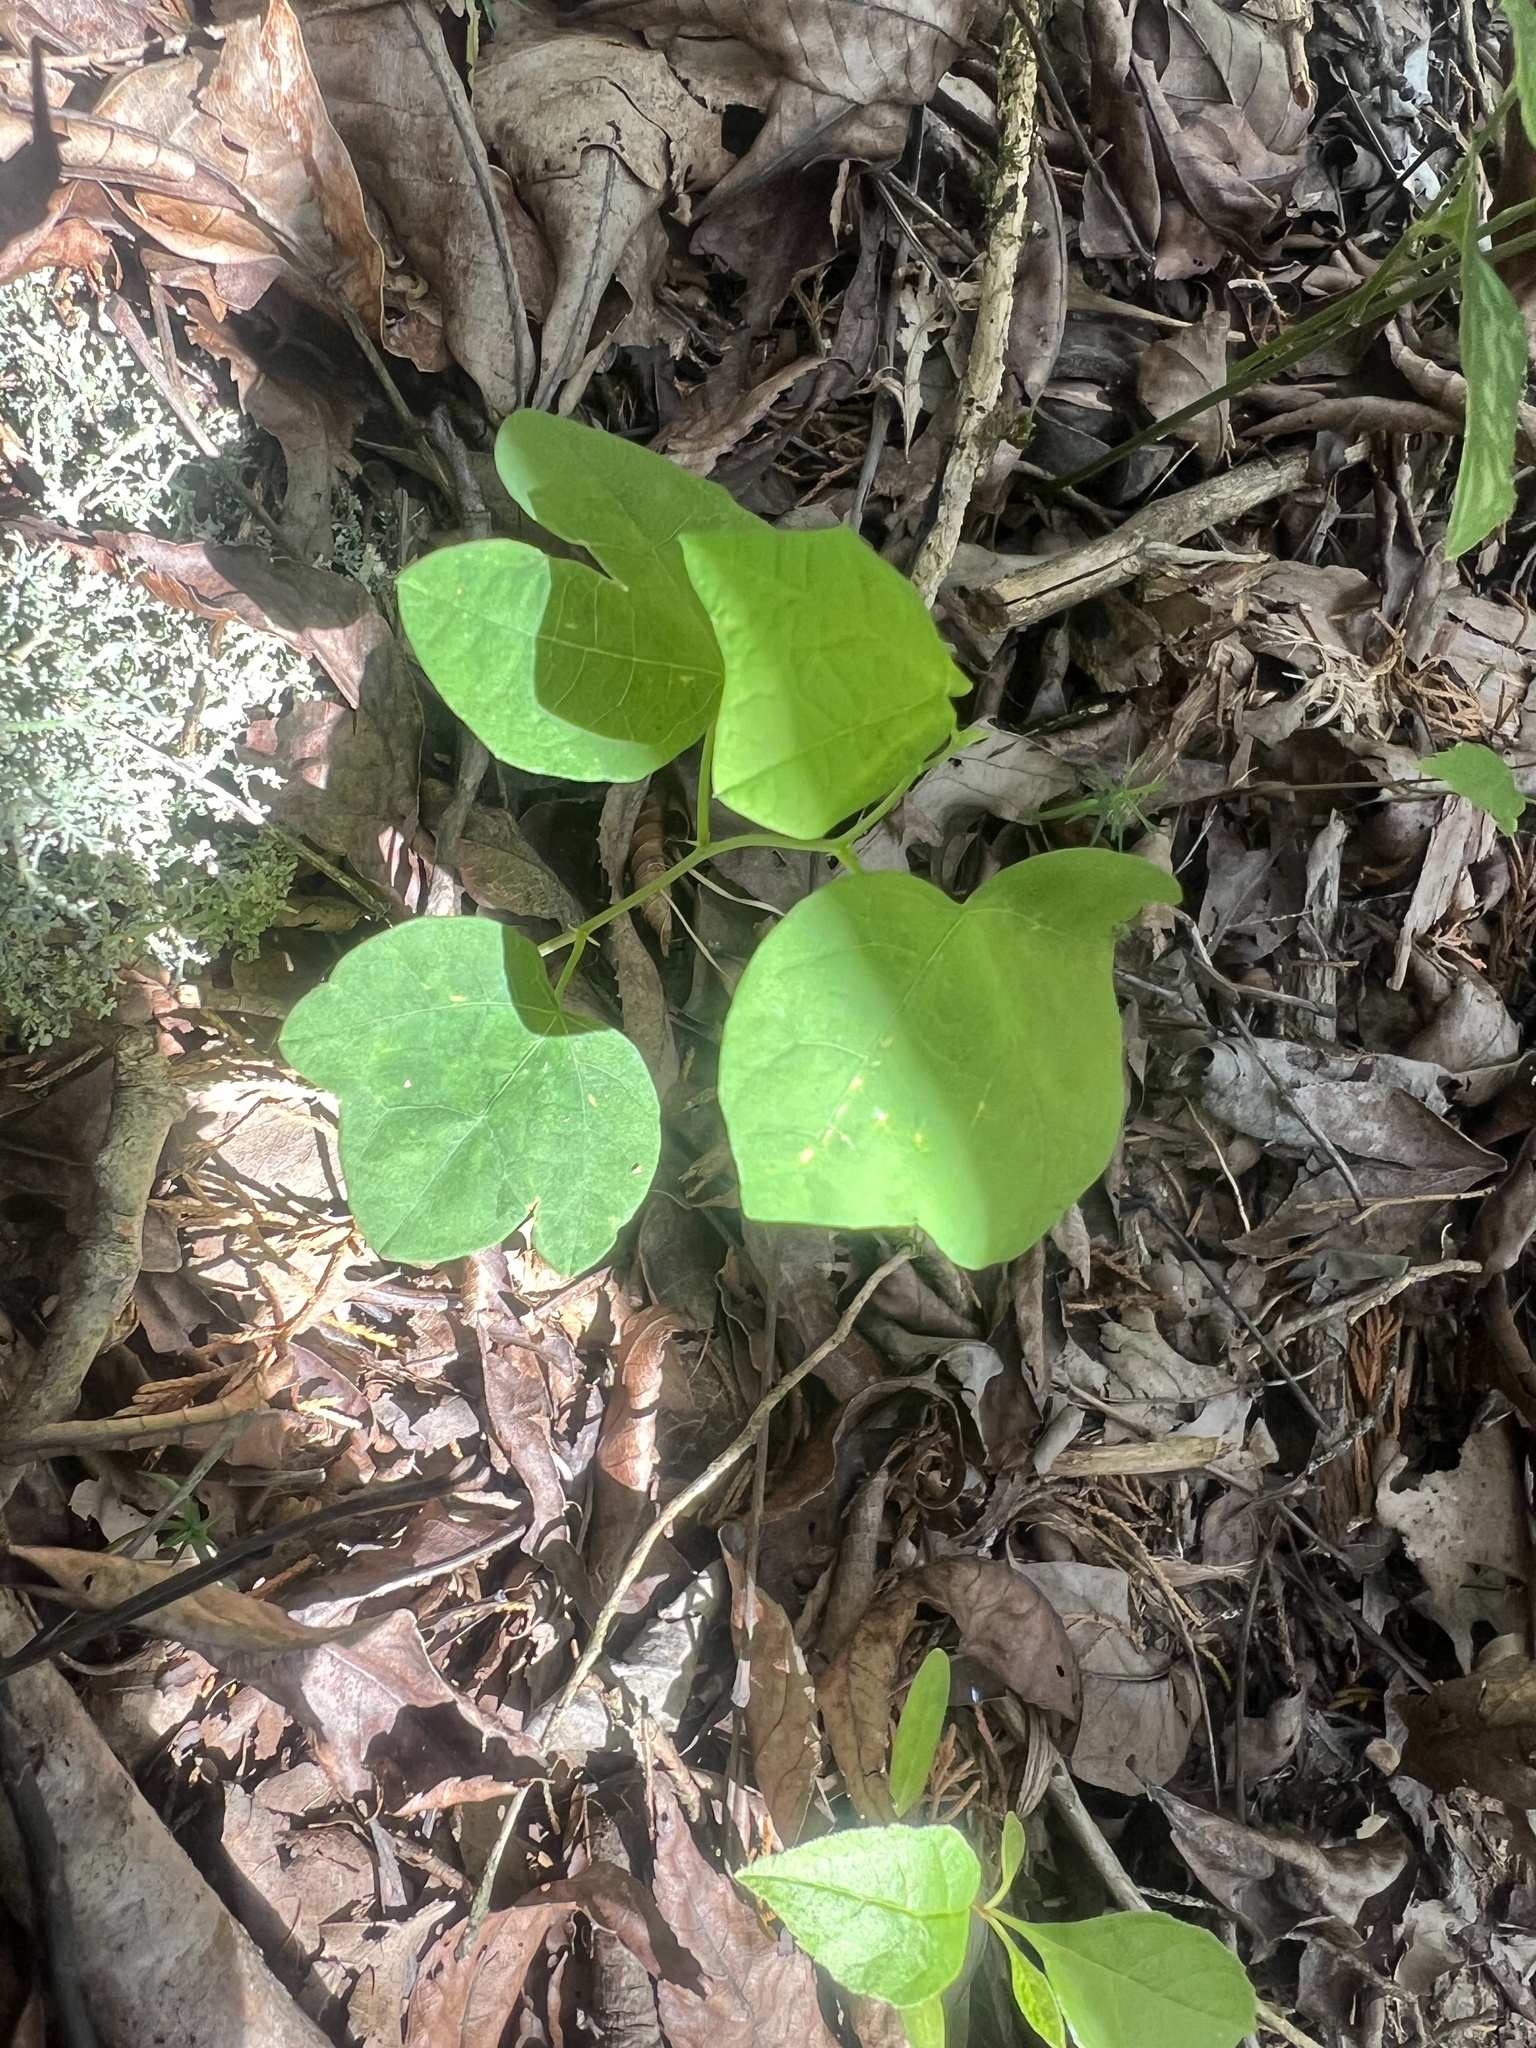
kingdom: Plantae
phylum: Tracheophyta
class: Magnoliopsida
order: Malpighiales
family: Passifloraceae
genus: Passiflora
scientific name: Passiflora lutea
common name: Yellow passionflower
